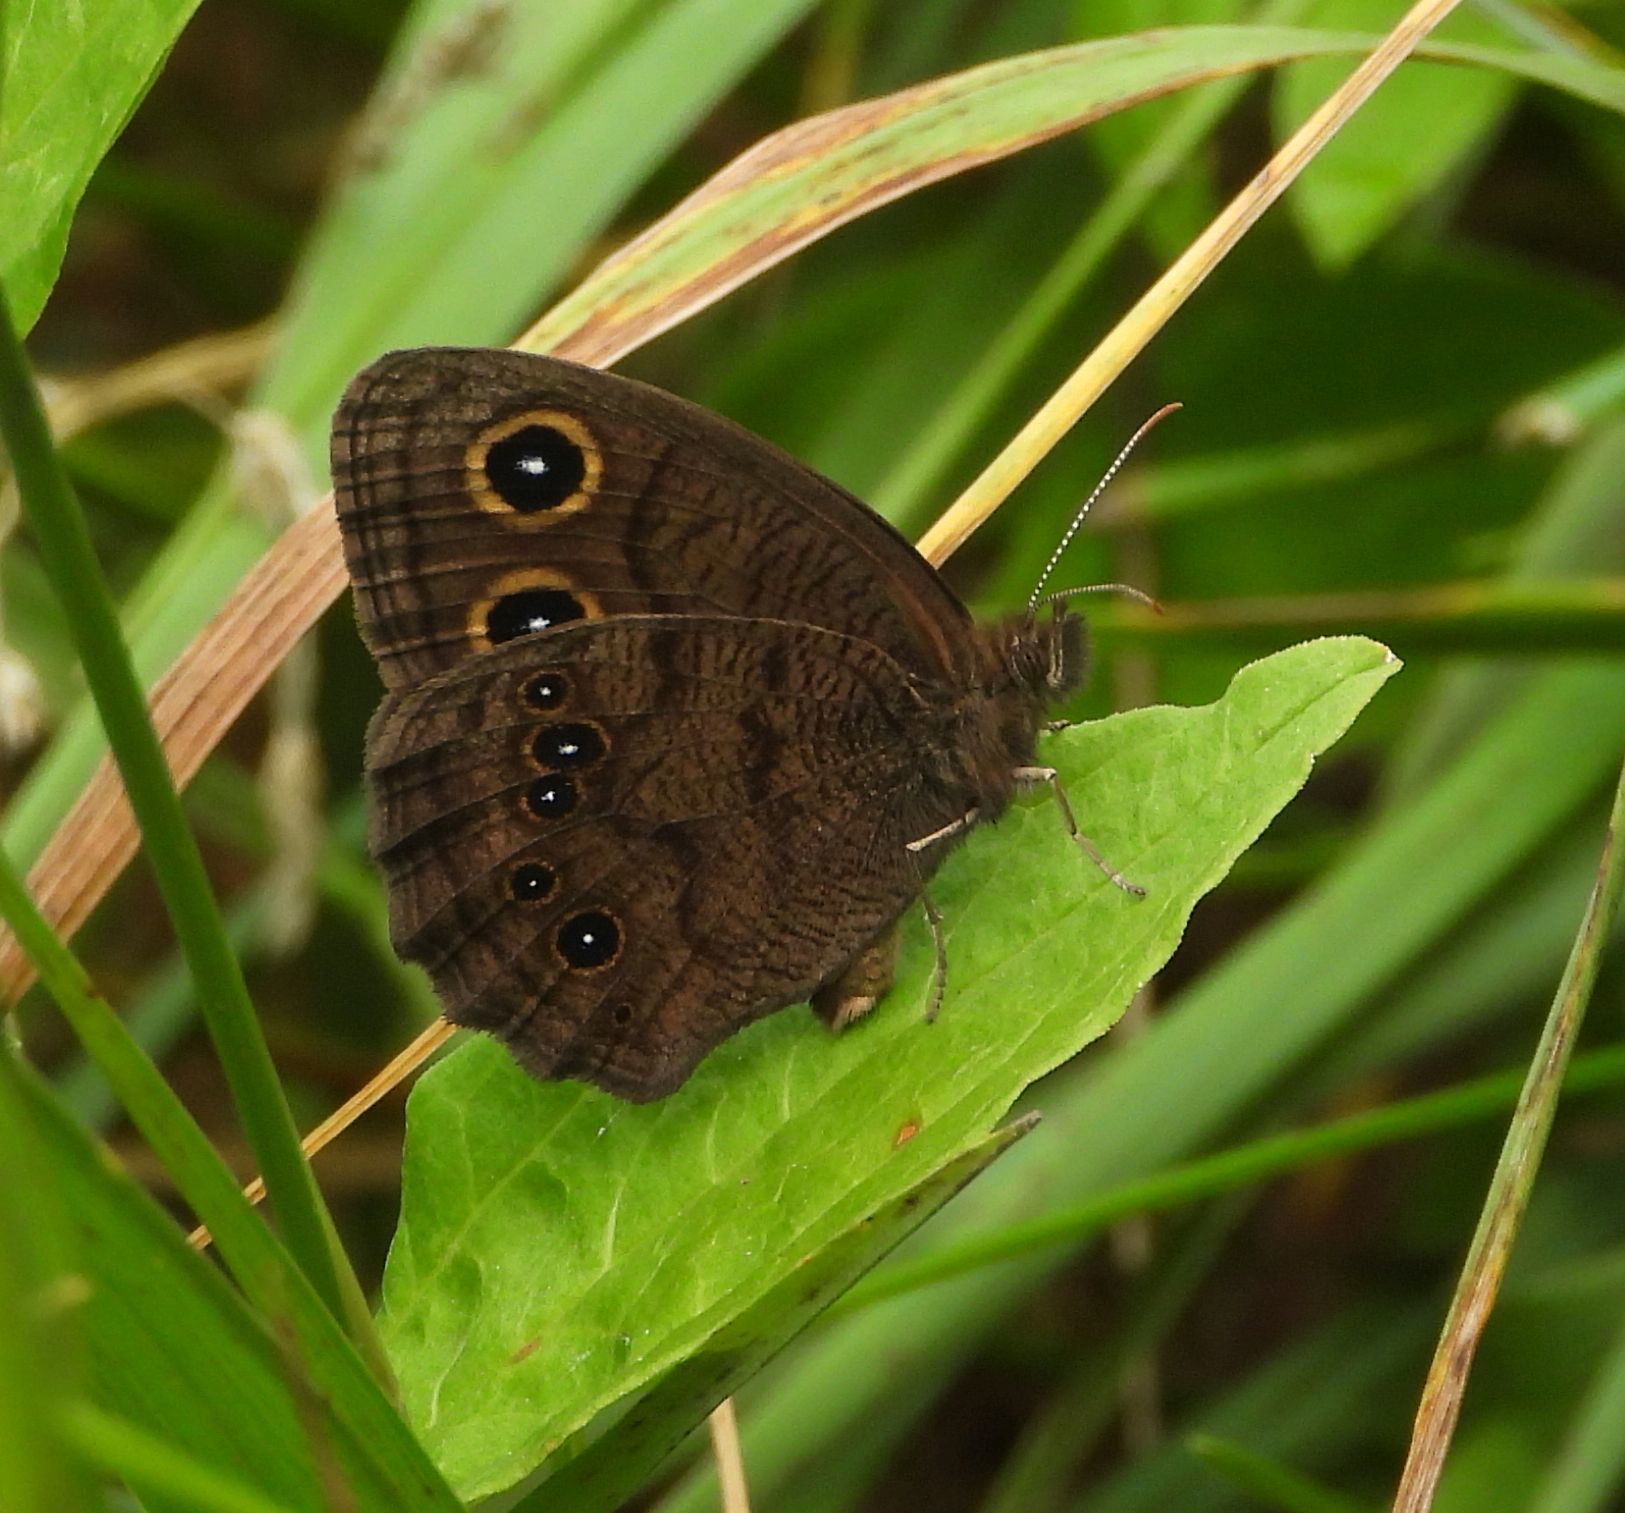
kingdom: Animalia
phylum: Arthropoda
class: Insecta
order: Lepidoptera
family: Nymphalidae
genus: Cercyonis
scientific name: Cercyonis pegala
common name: Common wood-nymph
